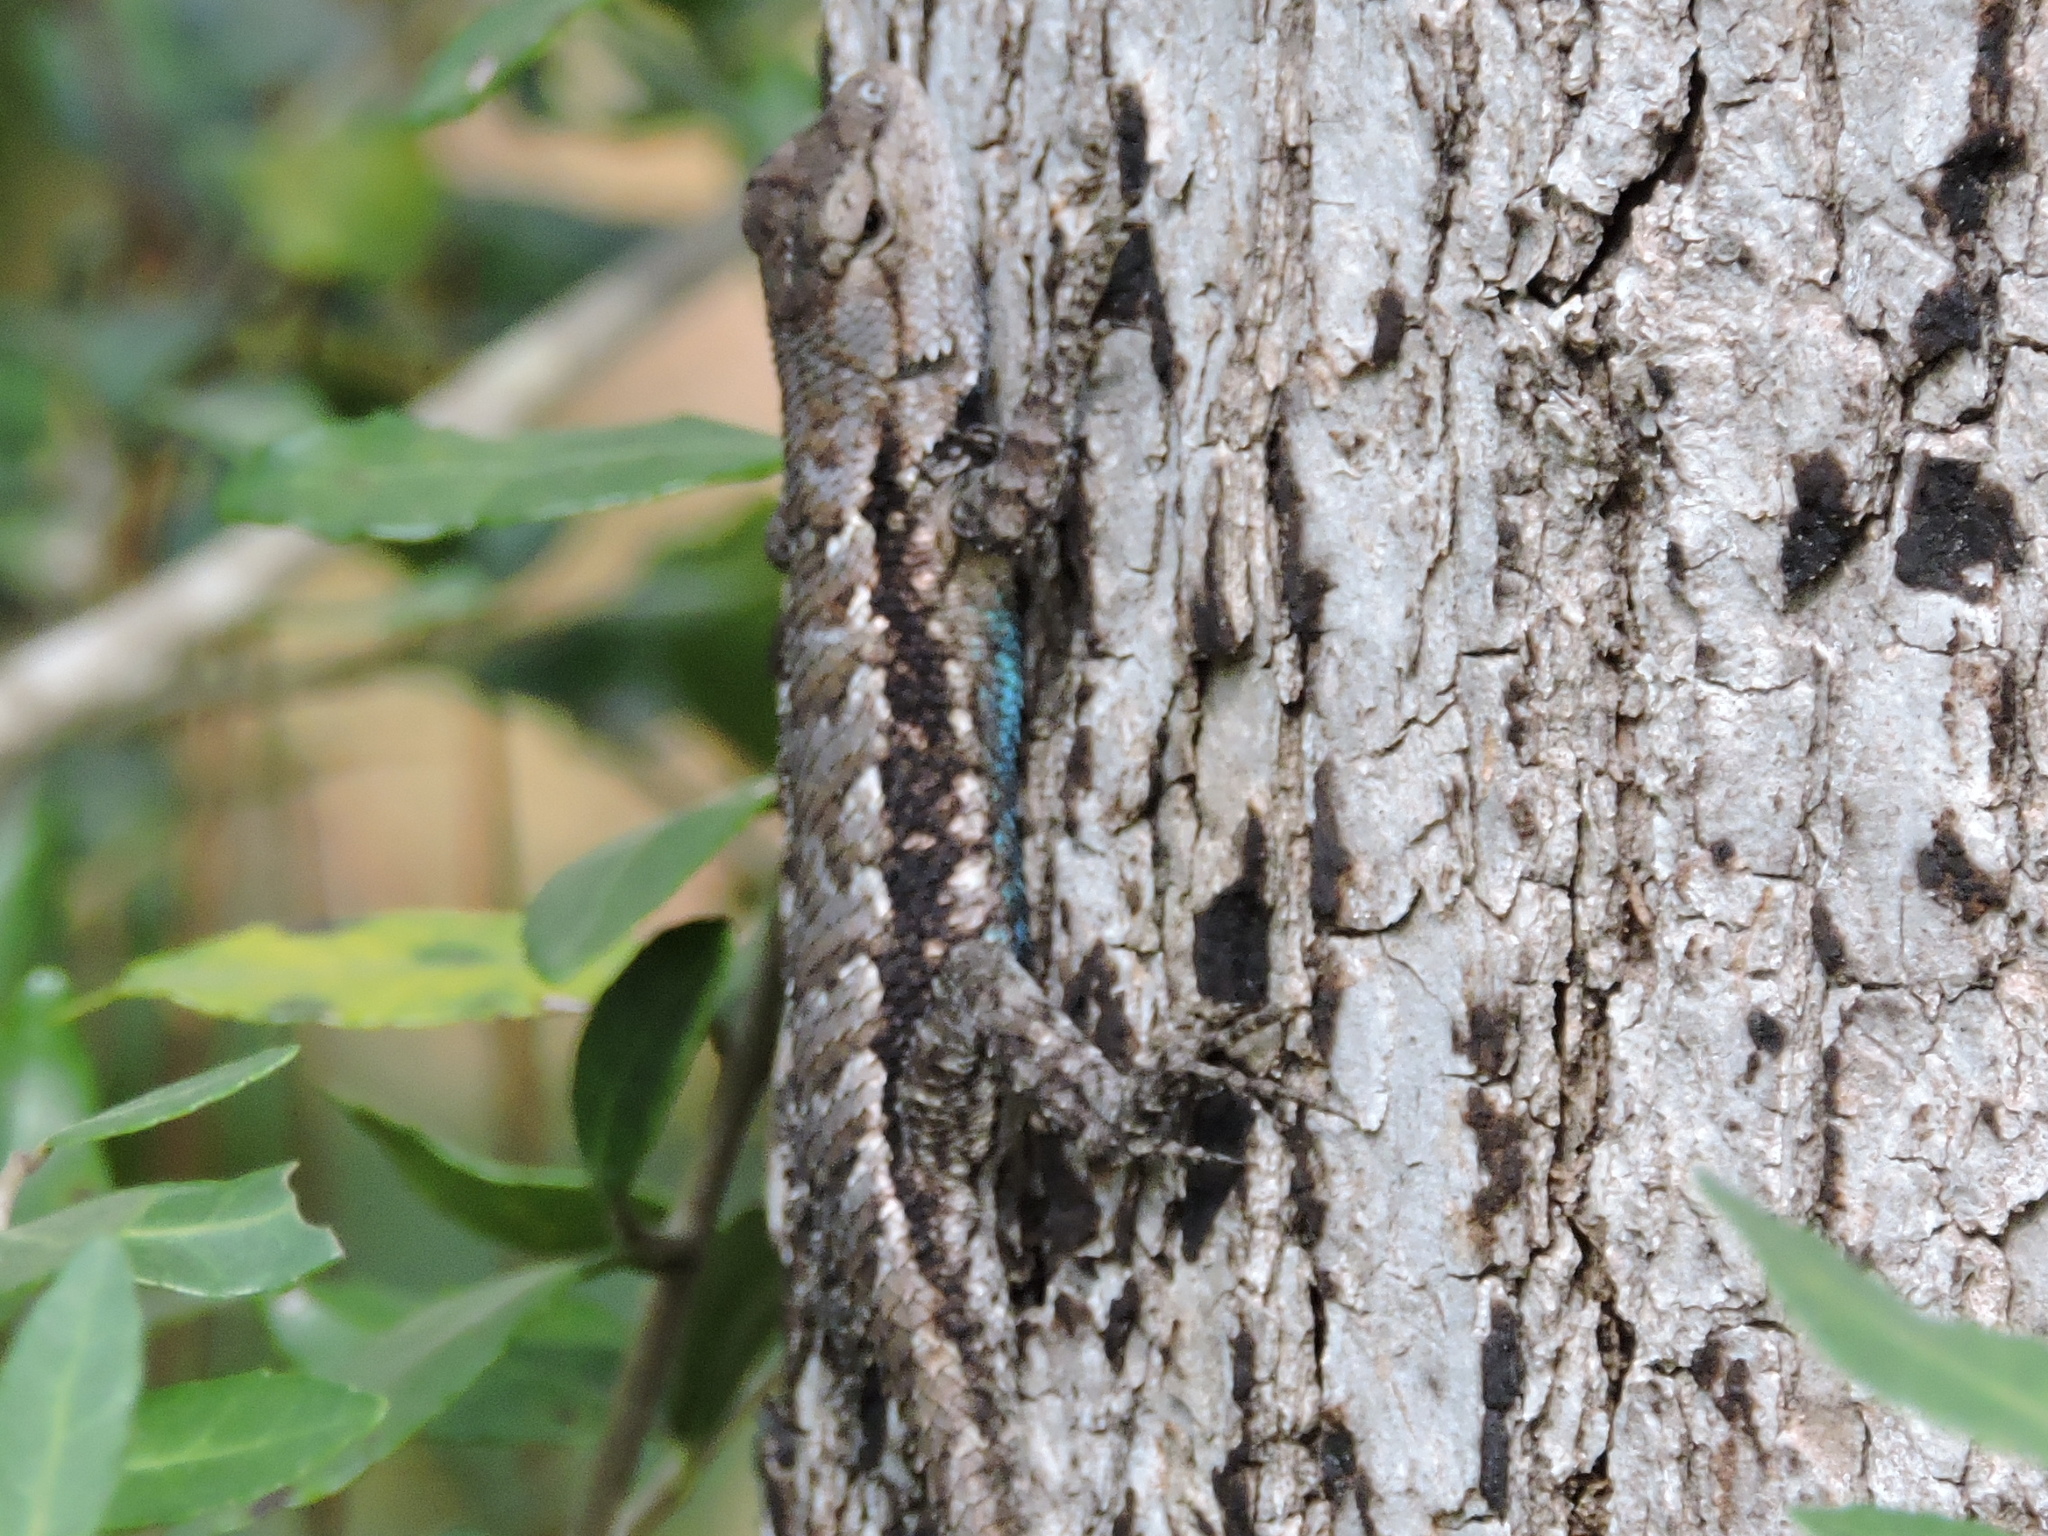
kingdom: Animalia
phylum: Chordata
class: Squamata
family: Phrynosomatidae
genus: Sceloporus
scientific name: Sceloporus consobrinus
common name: Southern prairie lizard
